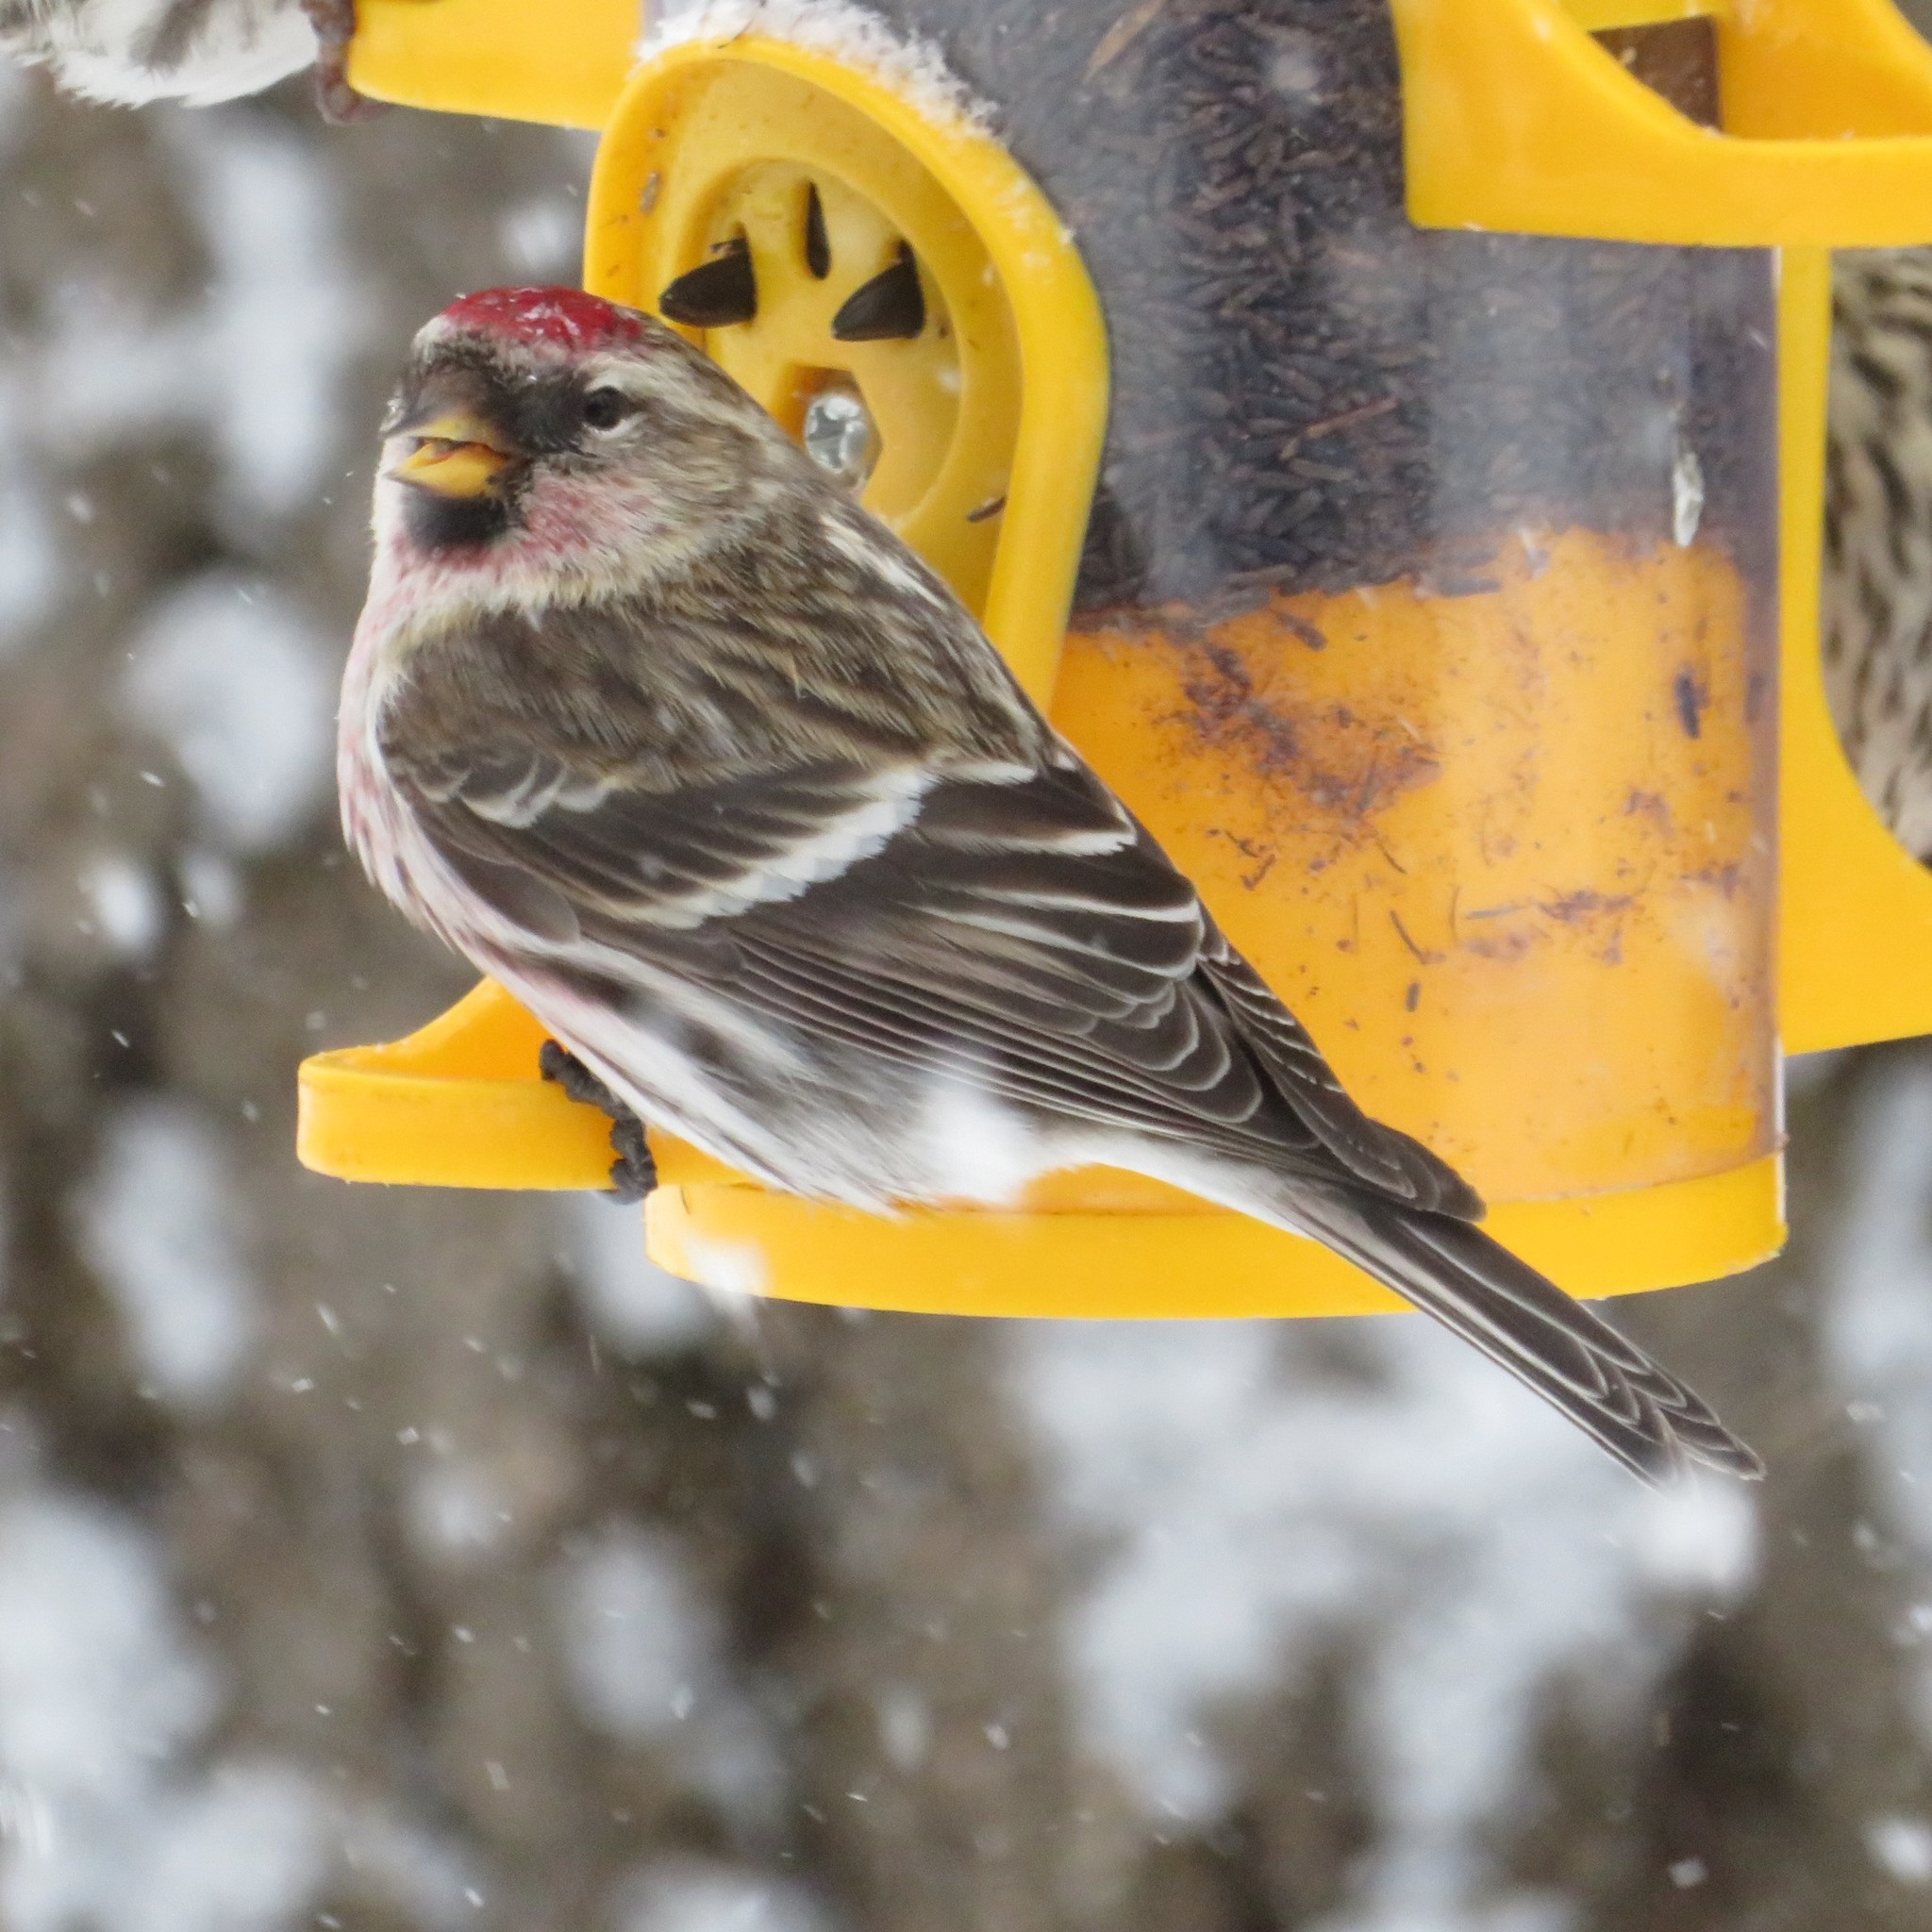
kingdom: Animalia
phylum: Chordata
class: Aves
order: Passeriformes
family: Fringillidae
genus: Acanthis
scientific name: Acanthis flammea
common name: Common redpoll
